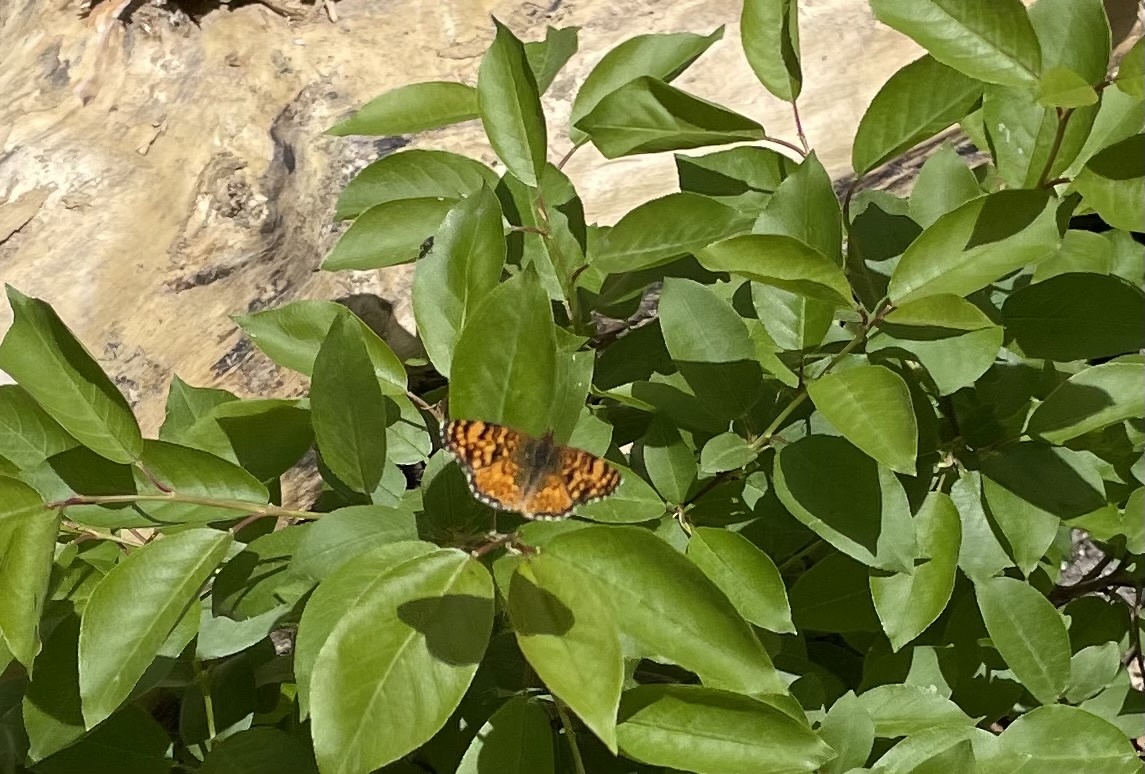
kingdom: Animalia
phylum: Arthropoda
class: Insecta
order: Lepidoptera
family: Nymphalidae
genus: Eresia
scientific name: Eresia aveyrona
